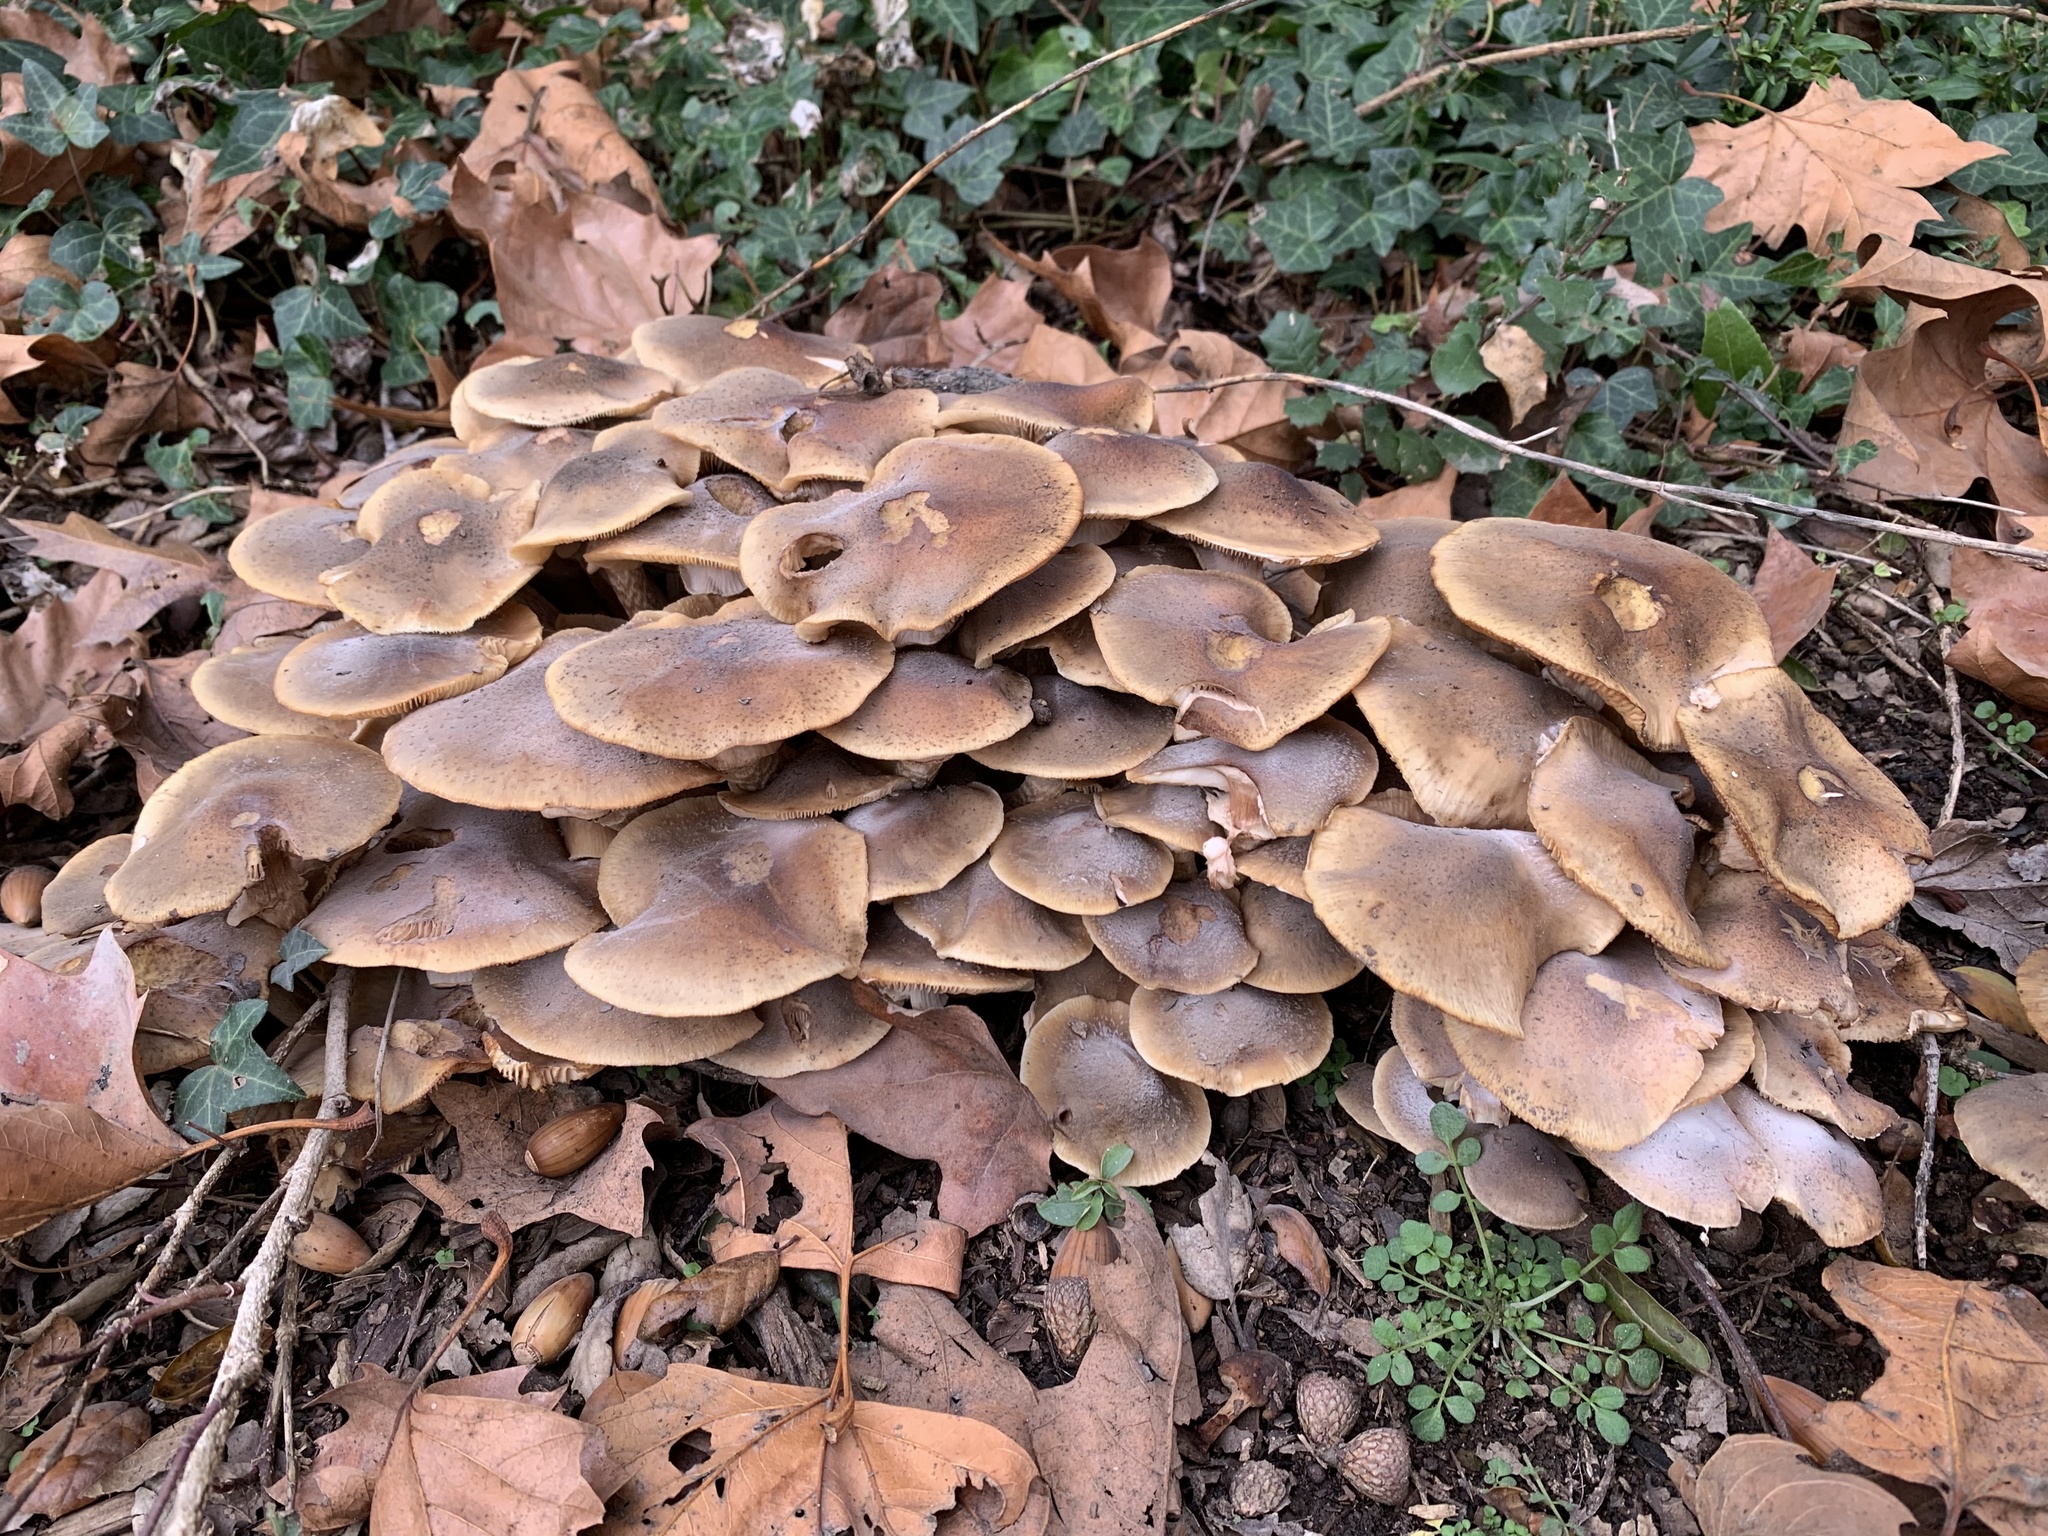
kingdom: Fungi
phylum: Basidiomycota
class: Agaricomycetes
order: Agaricales
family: Physalacriaceae
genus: Armillaria
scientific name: Armillaria mellea
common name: Honey fungus
